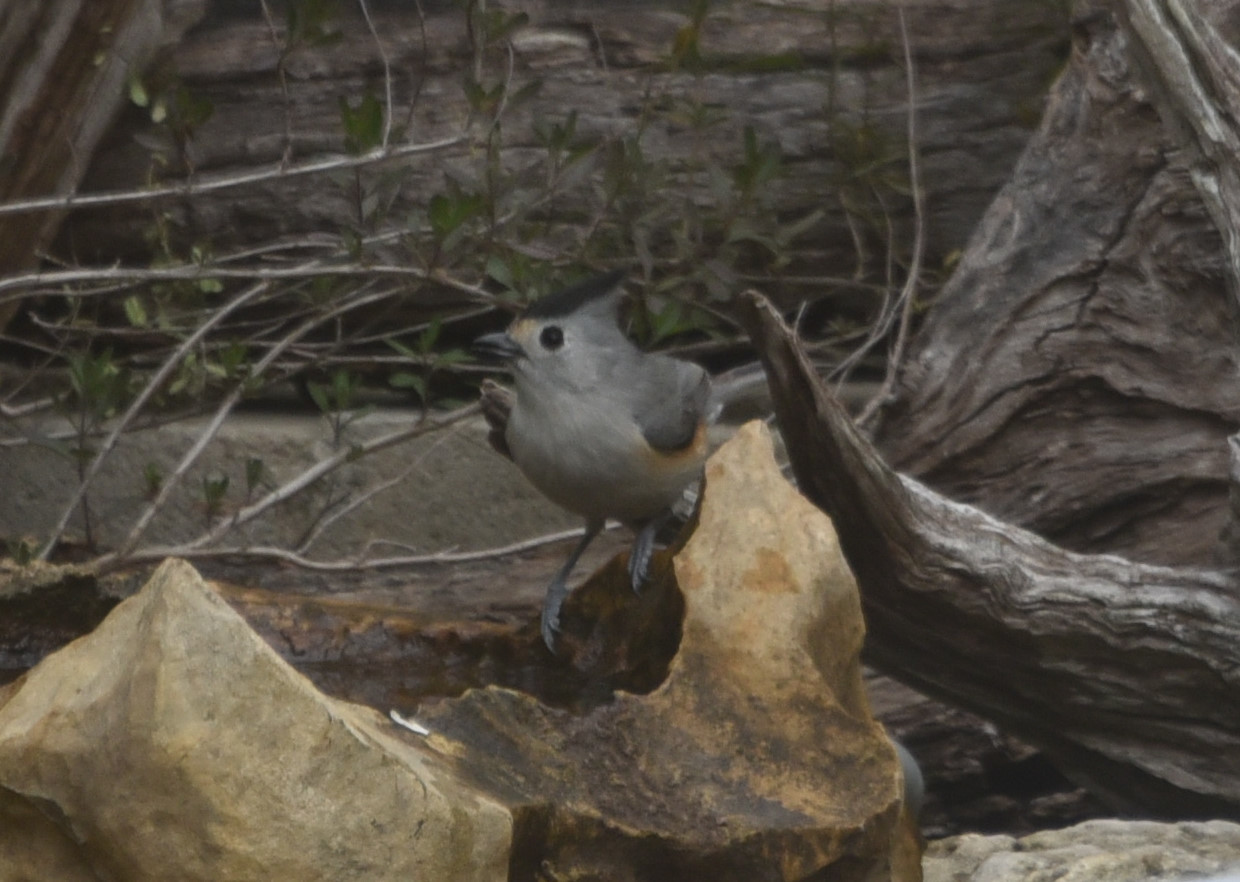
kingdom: Animalia
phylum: Chordata
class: Aves
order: Passeriformes
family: Paridae
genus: Baeolophus
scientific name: Baeolophus atricristatus
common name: Black-crested titmouse
